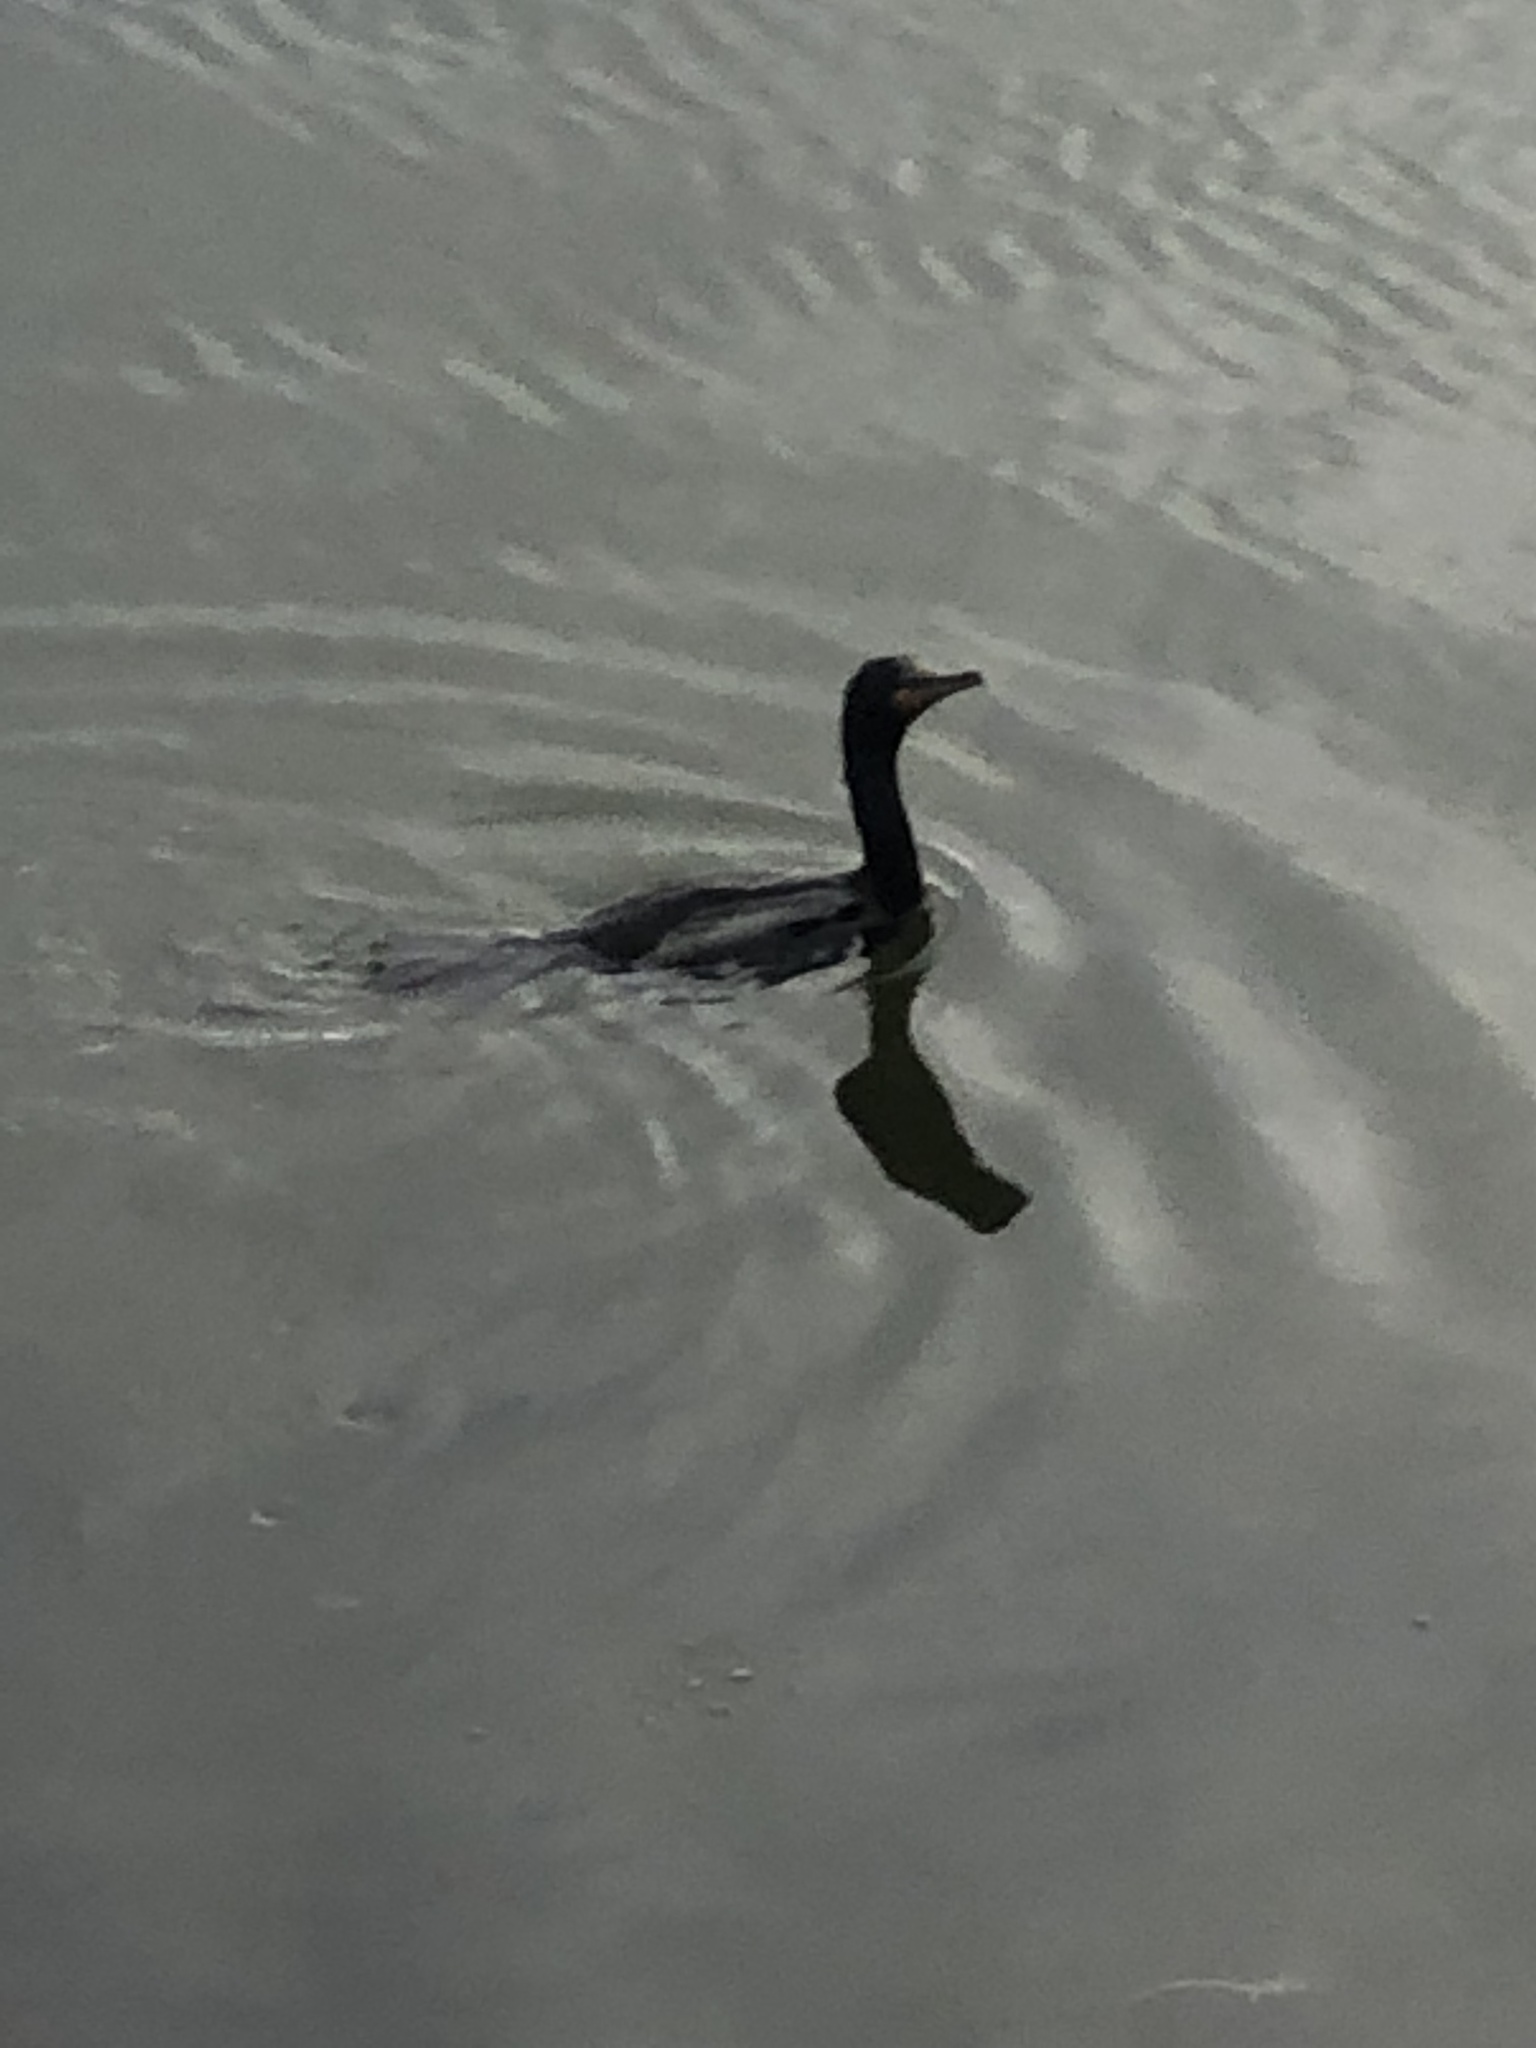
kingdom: Animalia
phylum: Chordata
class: Aves
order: Suliformes
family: Phalacrocoracidae
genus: Phalacrocorax
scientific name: Phalacrocorax auritus
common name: Double-crested cormorant
